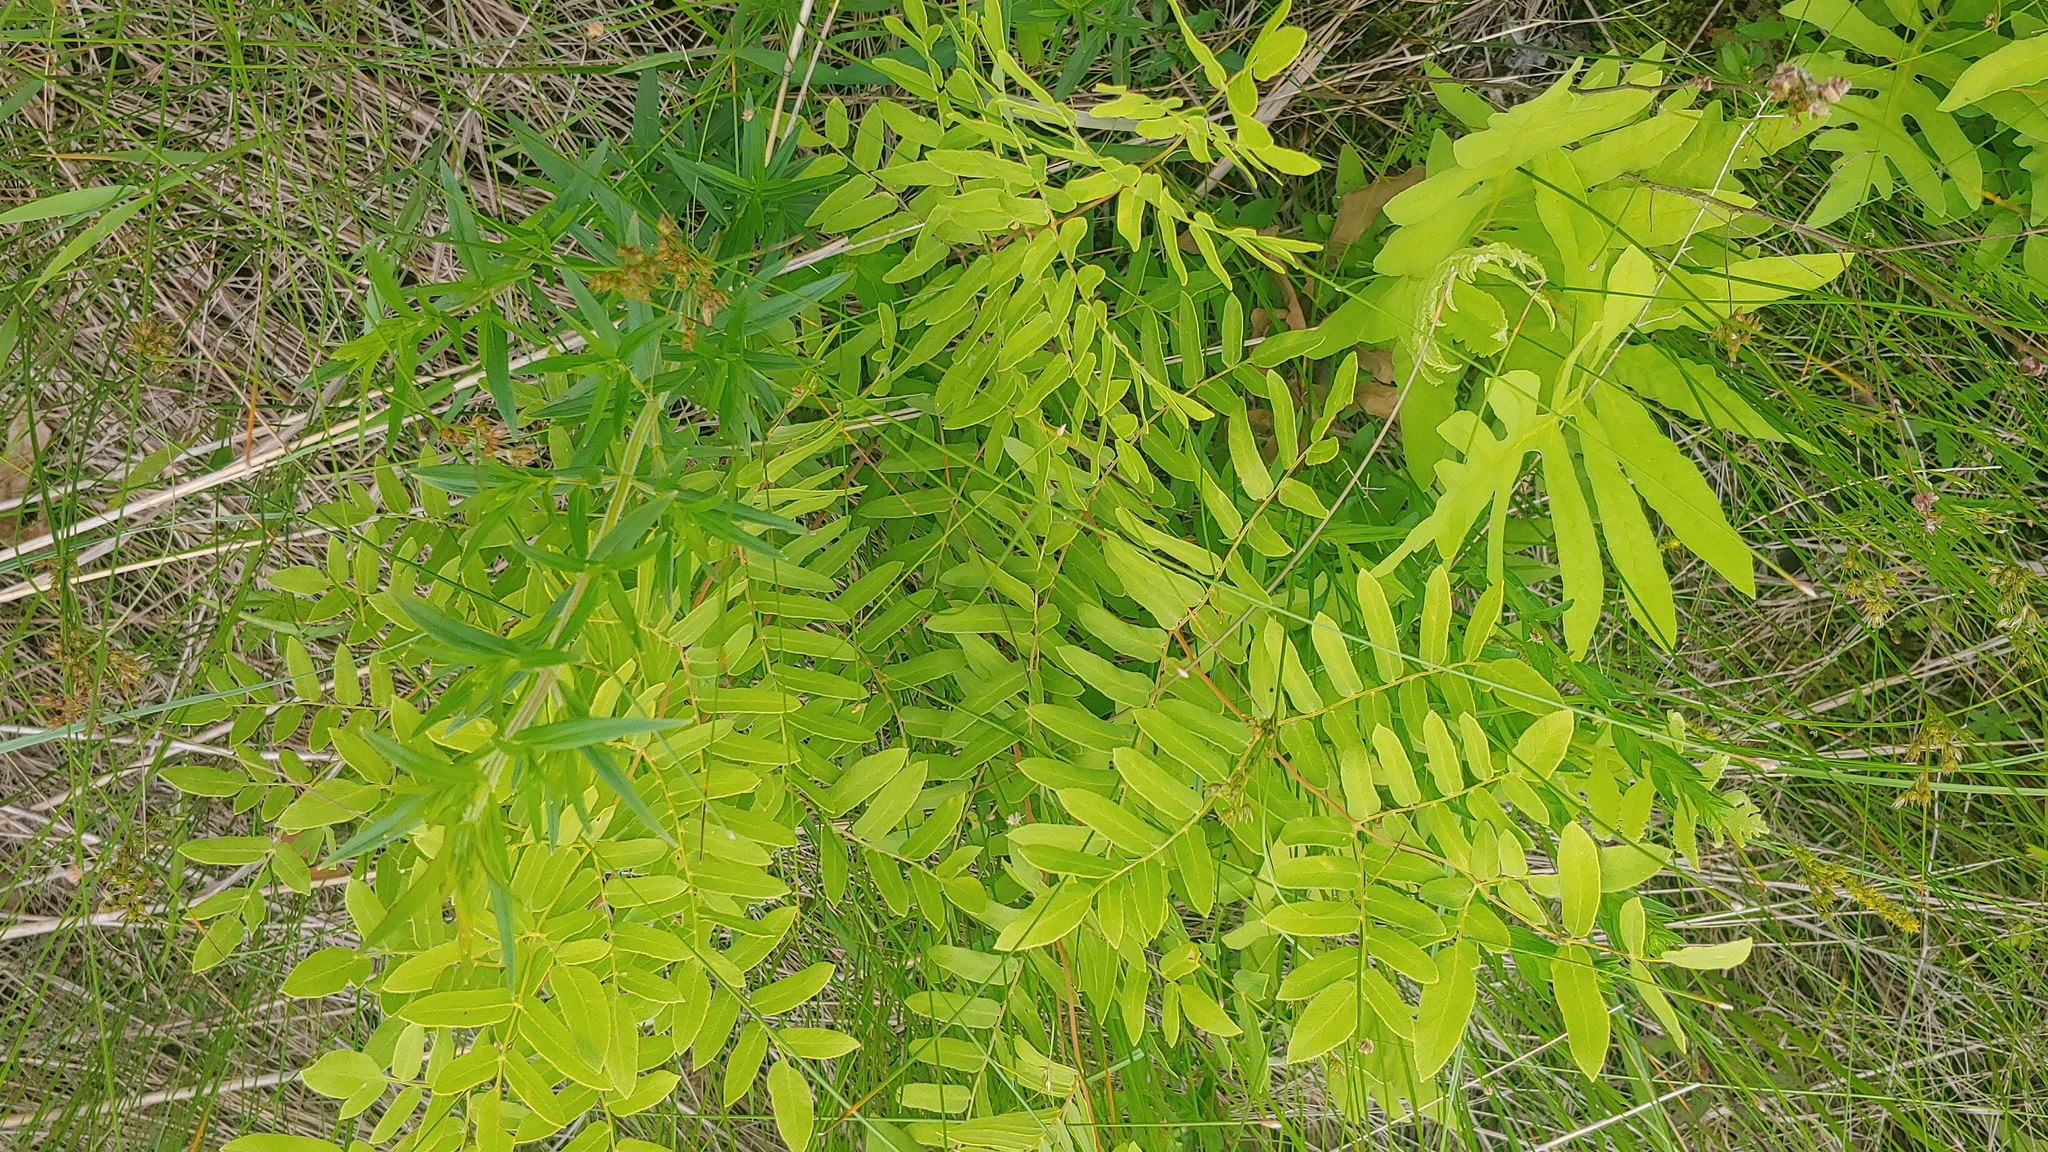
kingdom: Plantae
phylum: Tracheophyta
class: Polypodiopsida
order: Osmundales
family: Osmundaceae
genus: Osmunda
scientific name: Osmunda spectabilis
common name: American royal fern
